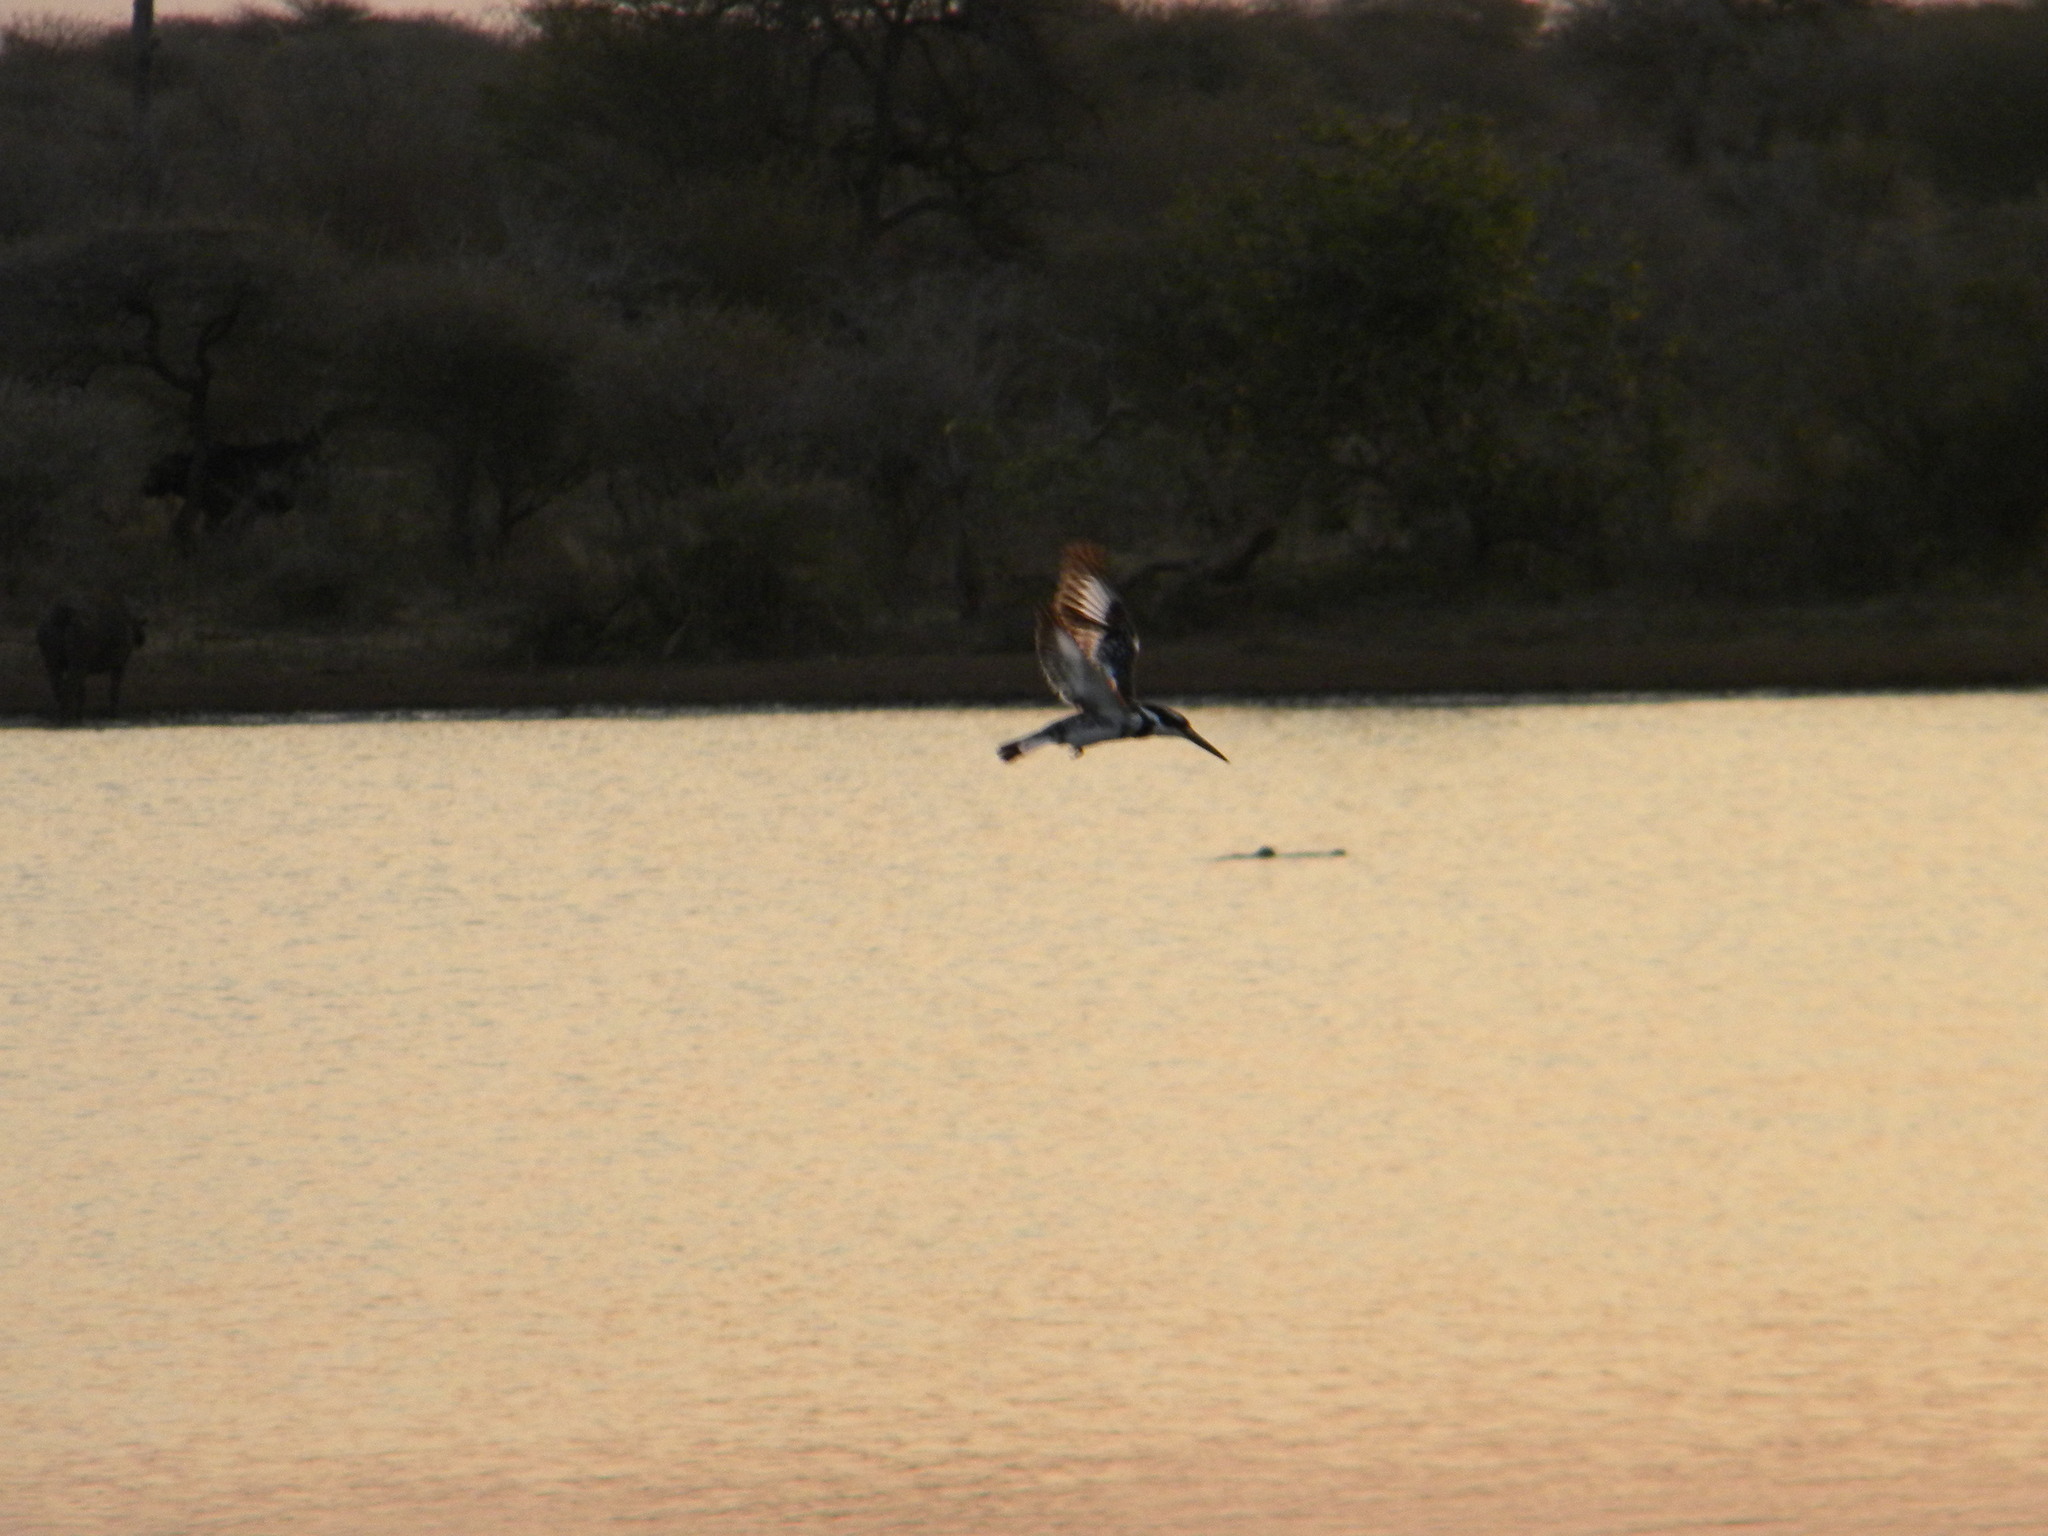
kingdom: Animalia
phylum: Chordata
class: Aves
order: Coraciiformes
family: Alcedinidae
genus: Ceryle
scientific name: Ceryle rudis
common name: Pied kingfisher
